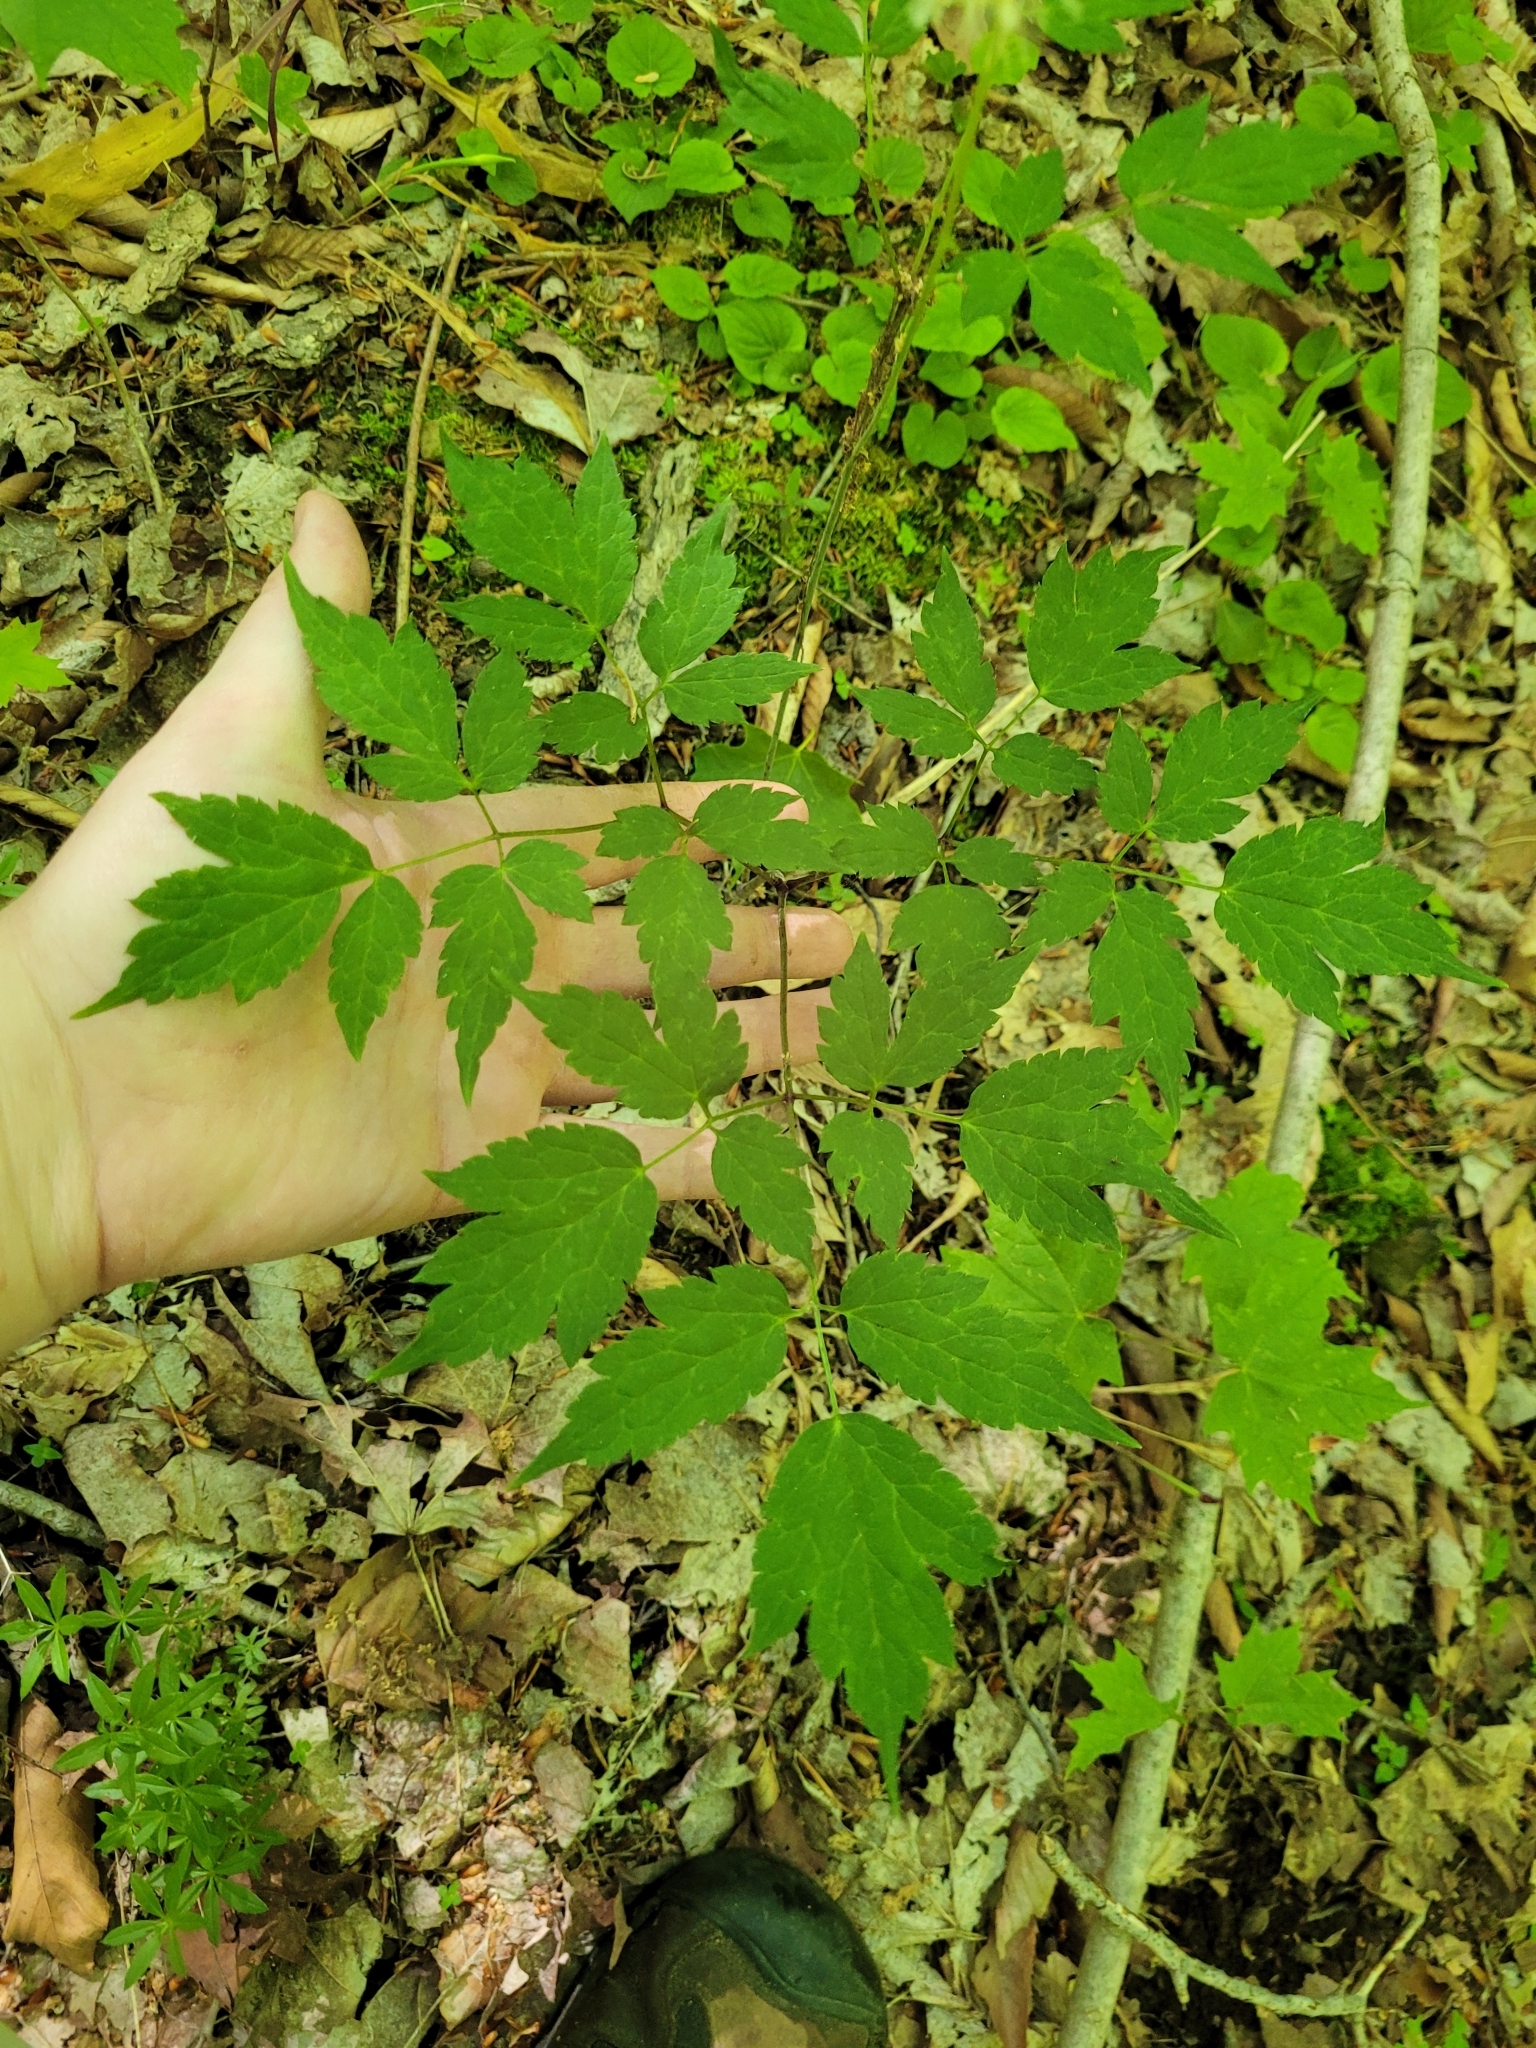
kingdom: Plantae
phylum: Tracheophyta
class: Magnoliopsida
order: Ranunculales
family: Ranunculaceae
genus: Actaea
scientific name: Actaea pachypoda
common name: Doll's-eyes
